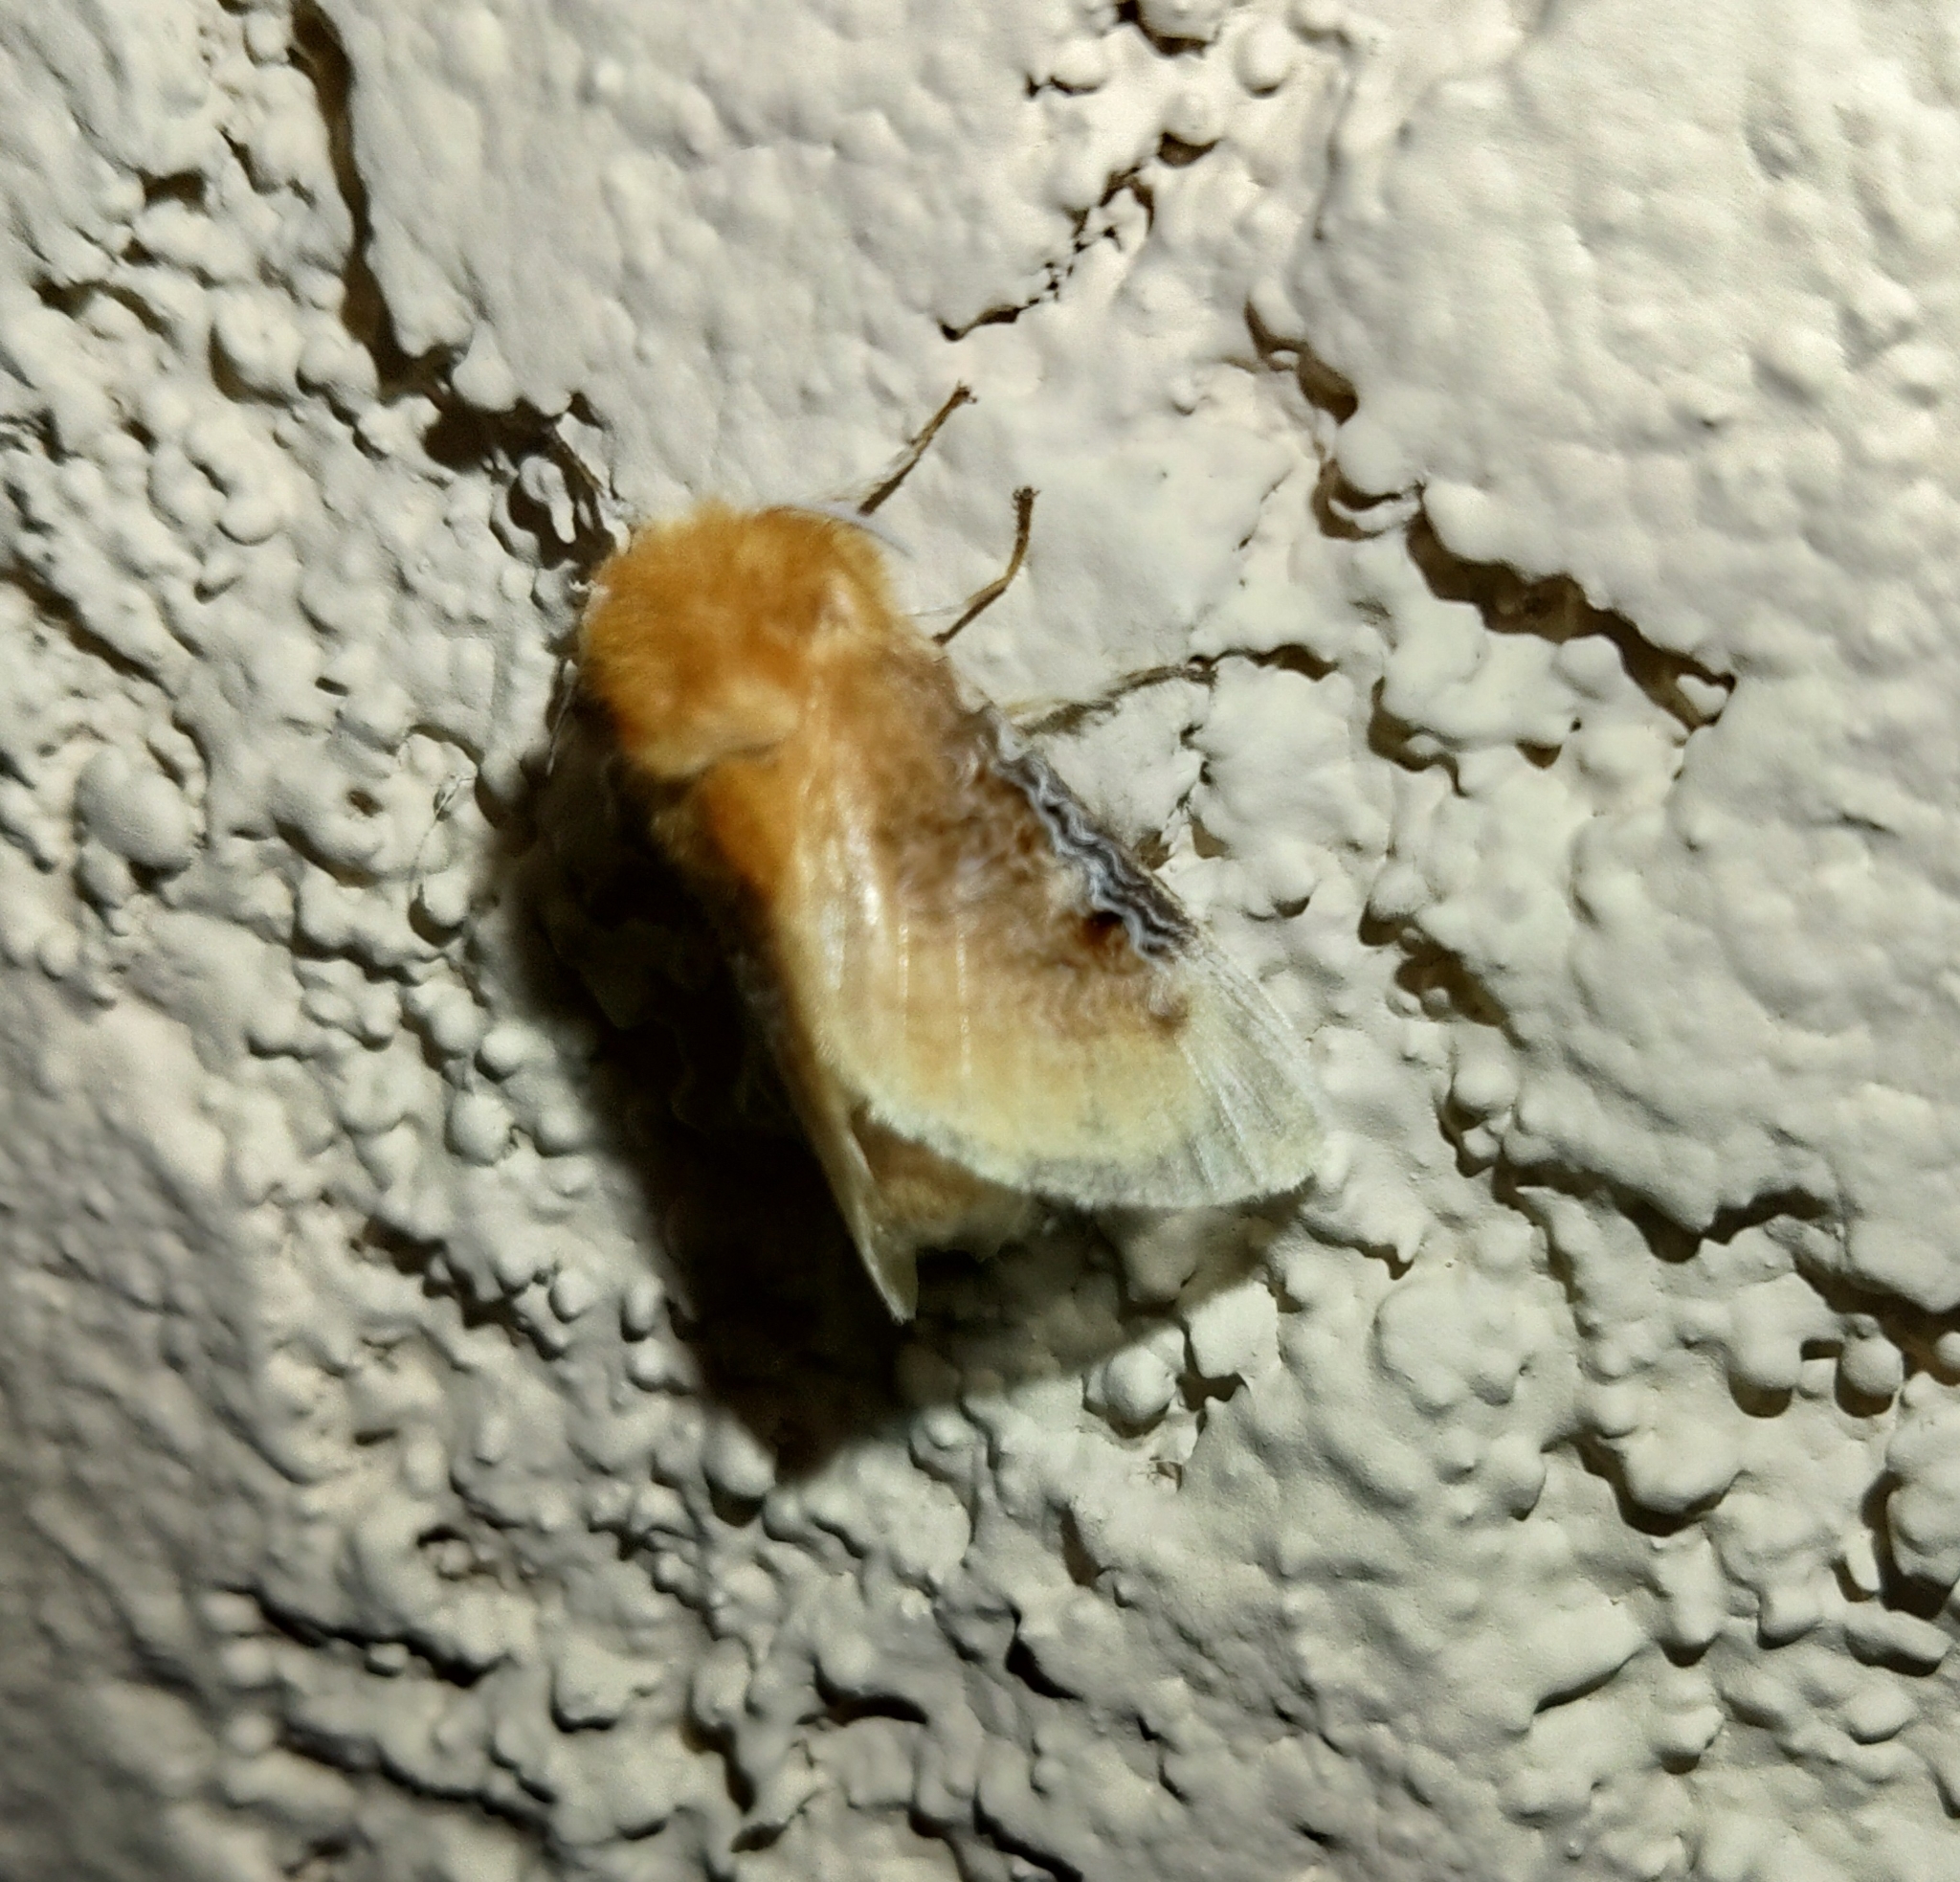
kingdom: Animalia
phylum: Arthropoda
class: Insecta
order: Lepidoptera
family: Megalopygidae
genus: Megalopyge
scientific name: Megalopyge opercularis
